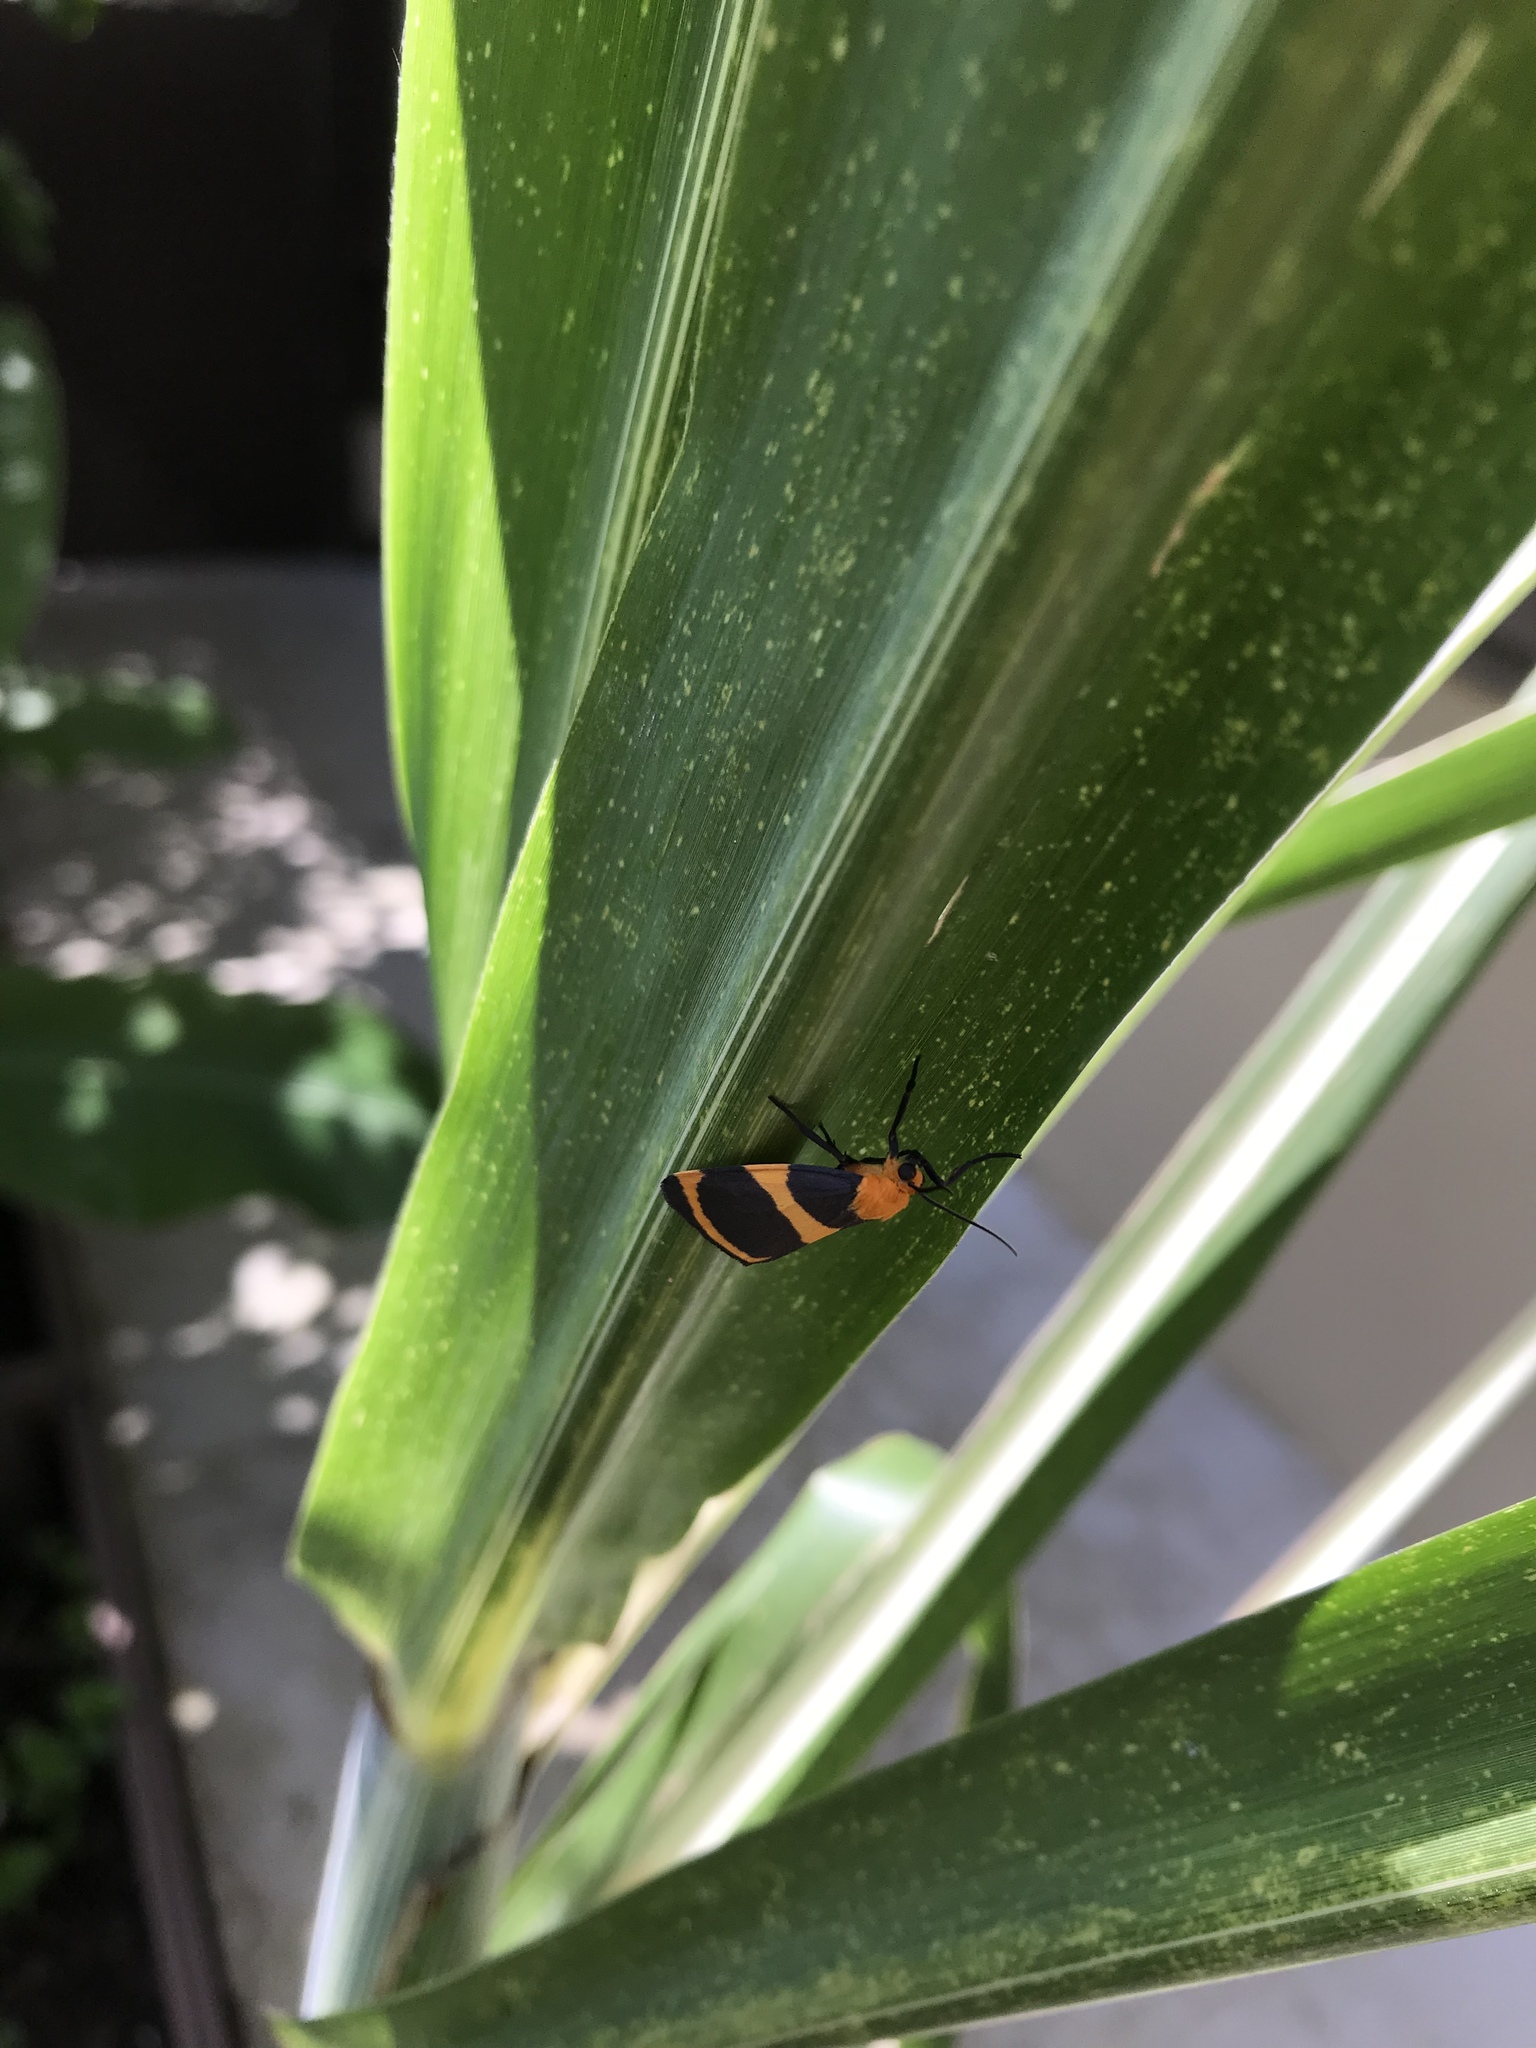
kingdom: Animalia
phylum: Arthropoda
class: Insecta
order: Lepidoptera
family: Erebidae
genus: Eudesmia
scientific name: Eudesmia menea
